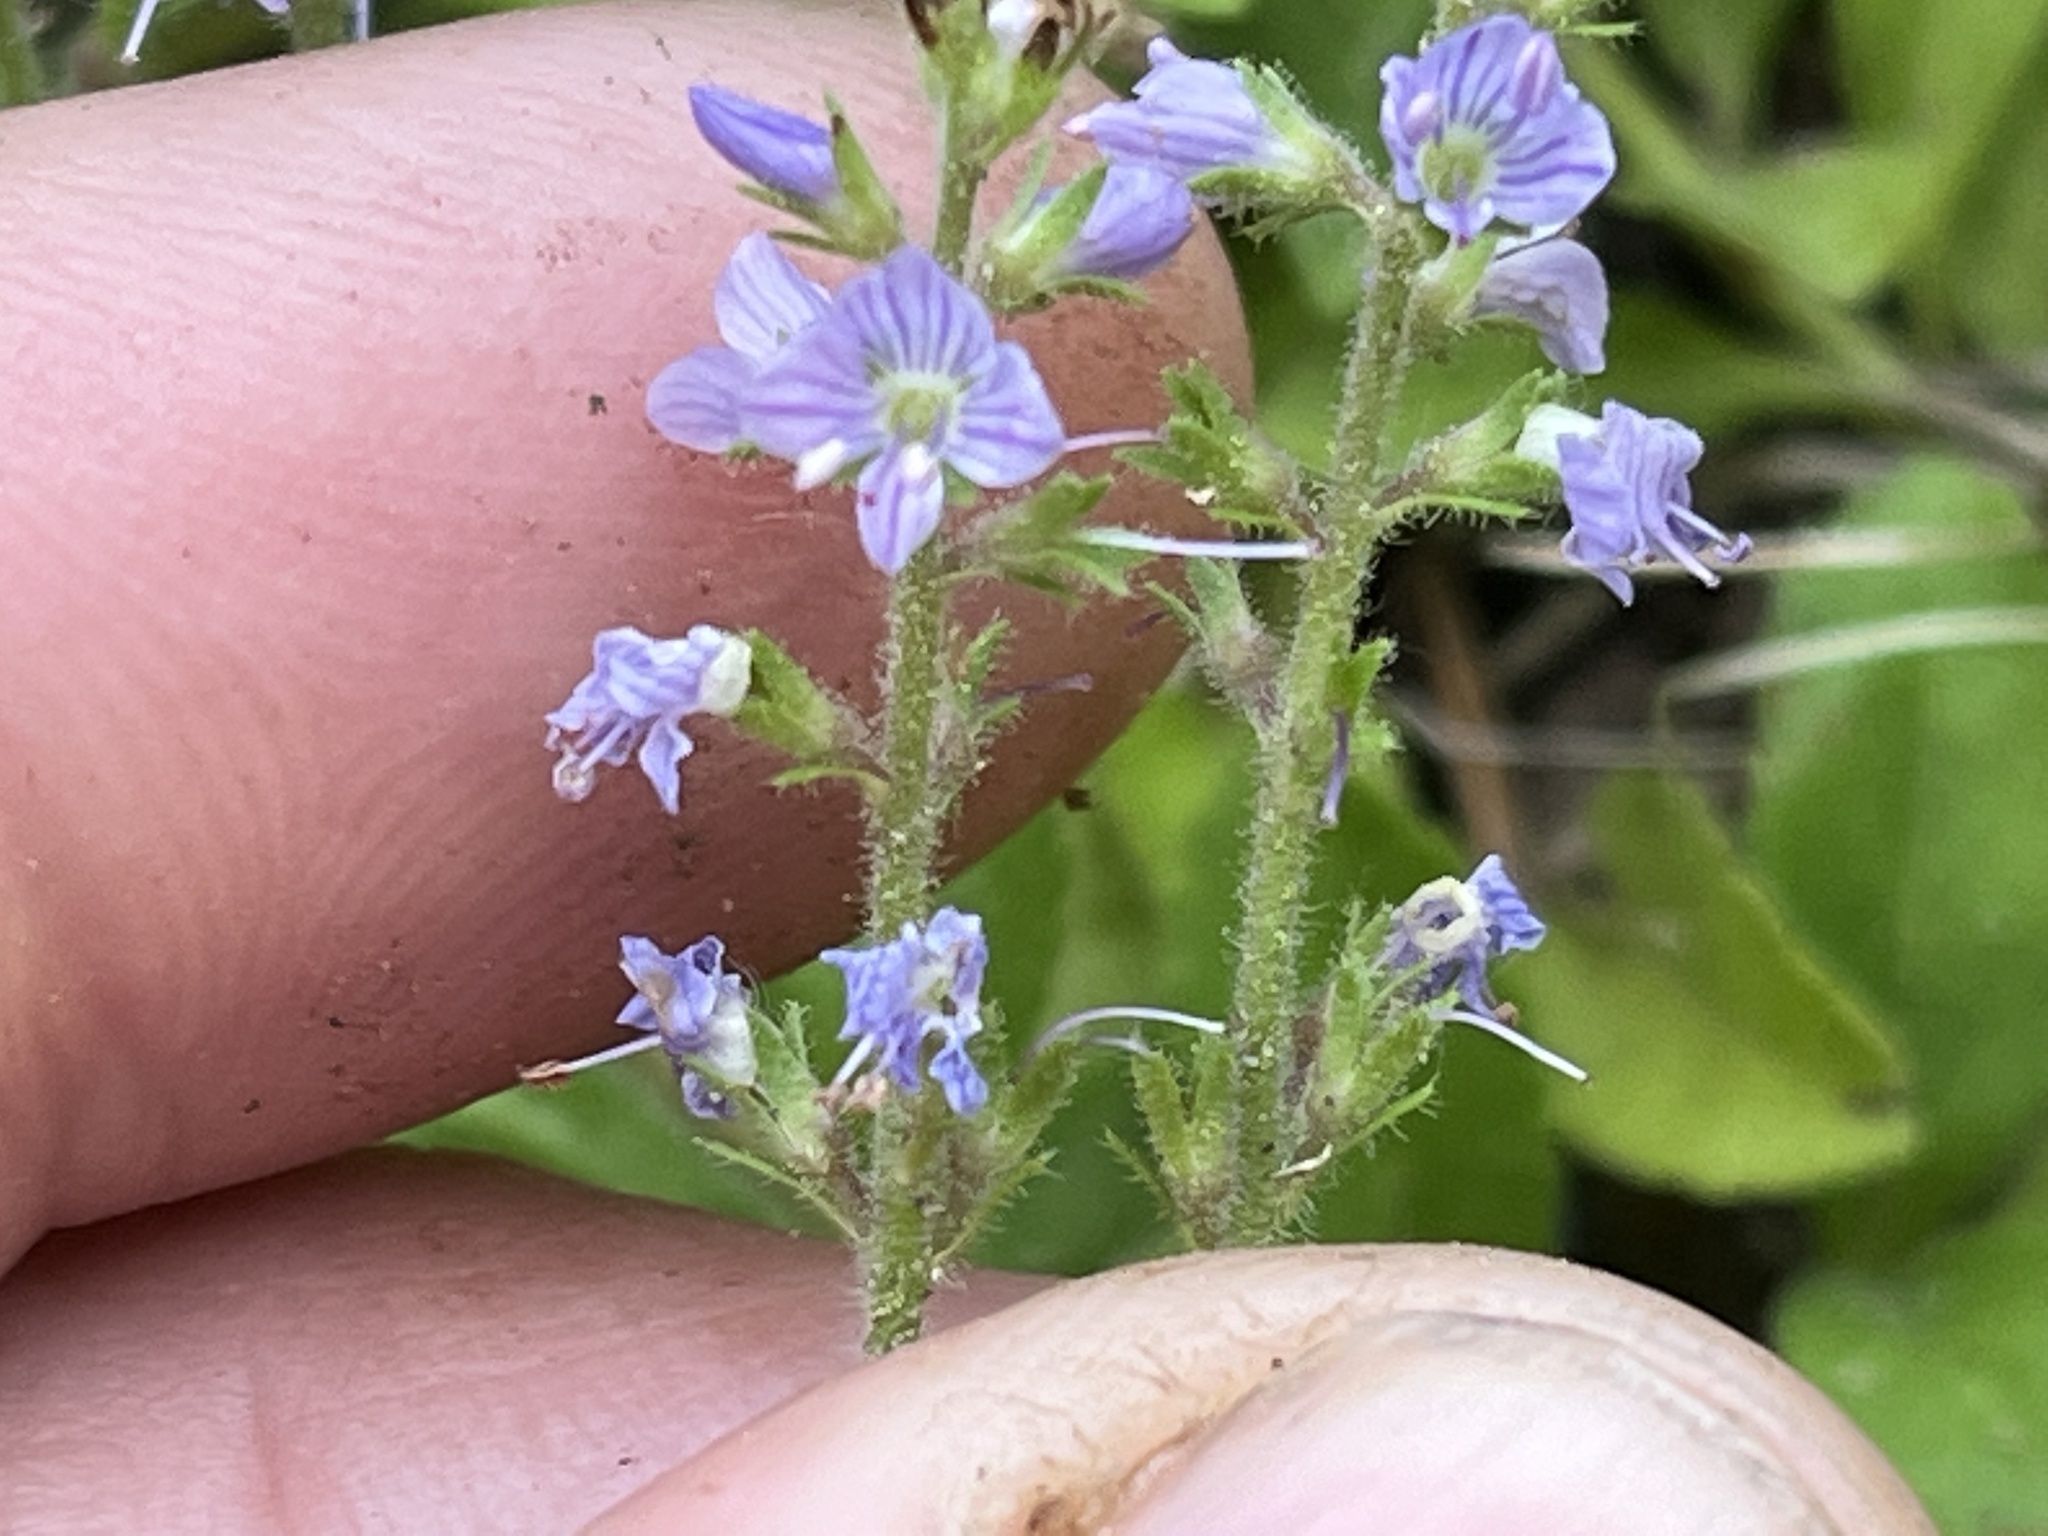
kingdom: Plantae
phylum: Tracheophyta
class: Magnoliopsida
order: Lamiales
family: Plantaginaceae
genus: Veronica
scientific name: Veronica officinalis
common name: Common speedwell
